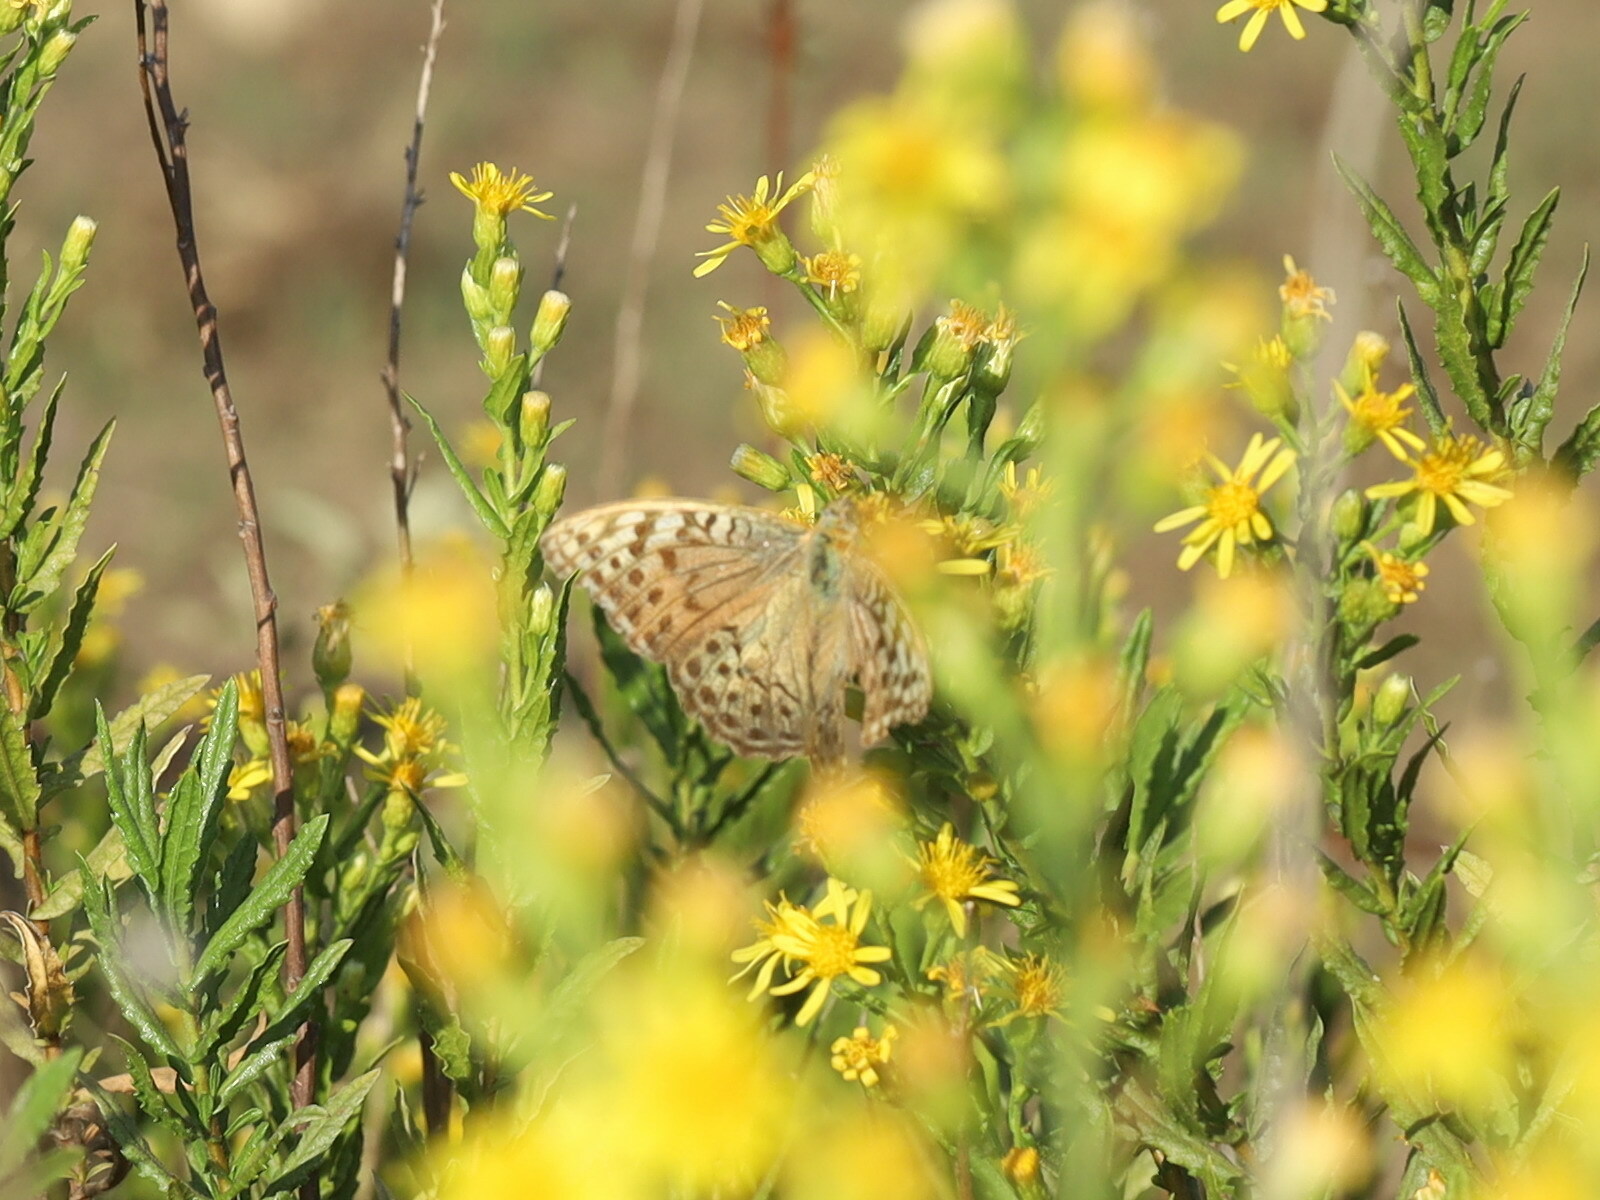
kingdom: Animalia
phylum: Arthropoda
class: Insecta
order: Lepidoptera
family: Nymphalidae
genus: Damora
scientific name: Damora pandora
